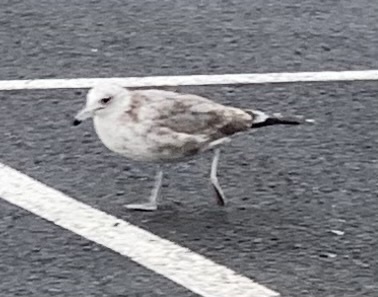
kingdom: Animalia
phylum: Chordata
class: Aves
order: Charadriiformes
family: Laridae
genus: Larus
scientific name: Larus californicus
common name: California gull
